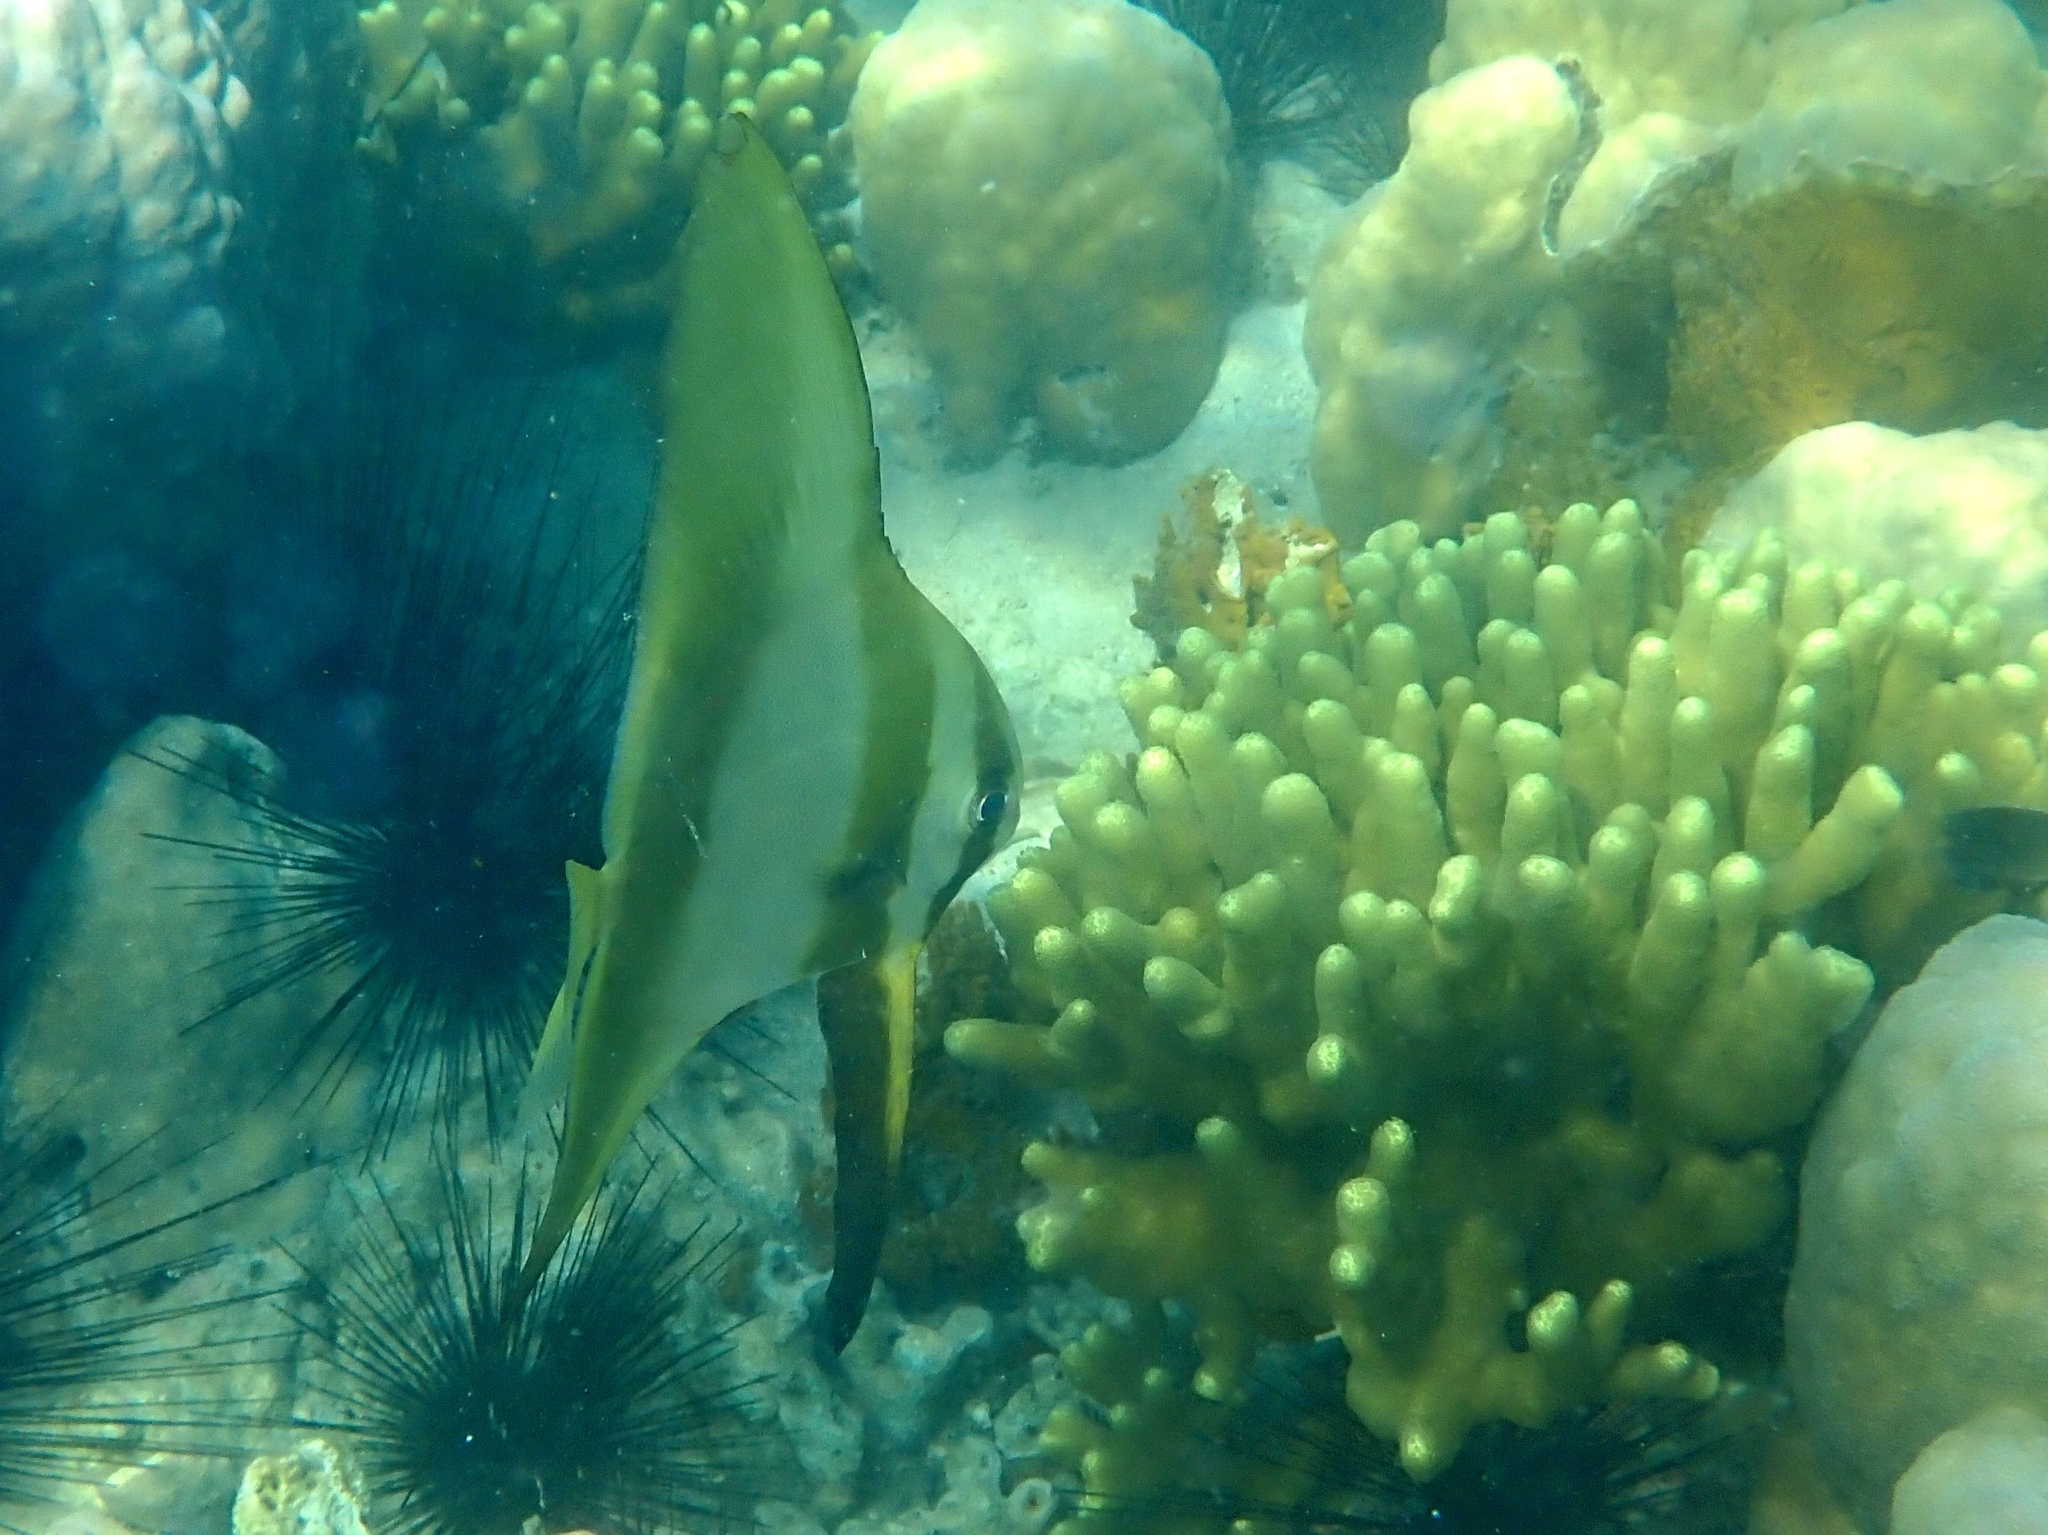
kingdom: Animalia
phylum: Chordata
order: Perciformes
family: Ephippidae
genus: Platax
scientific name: Platax teira
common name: Longfin baitfish
